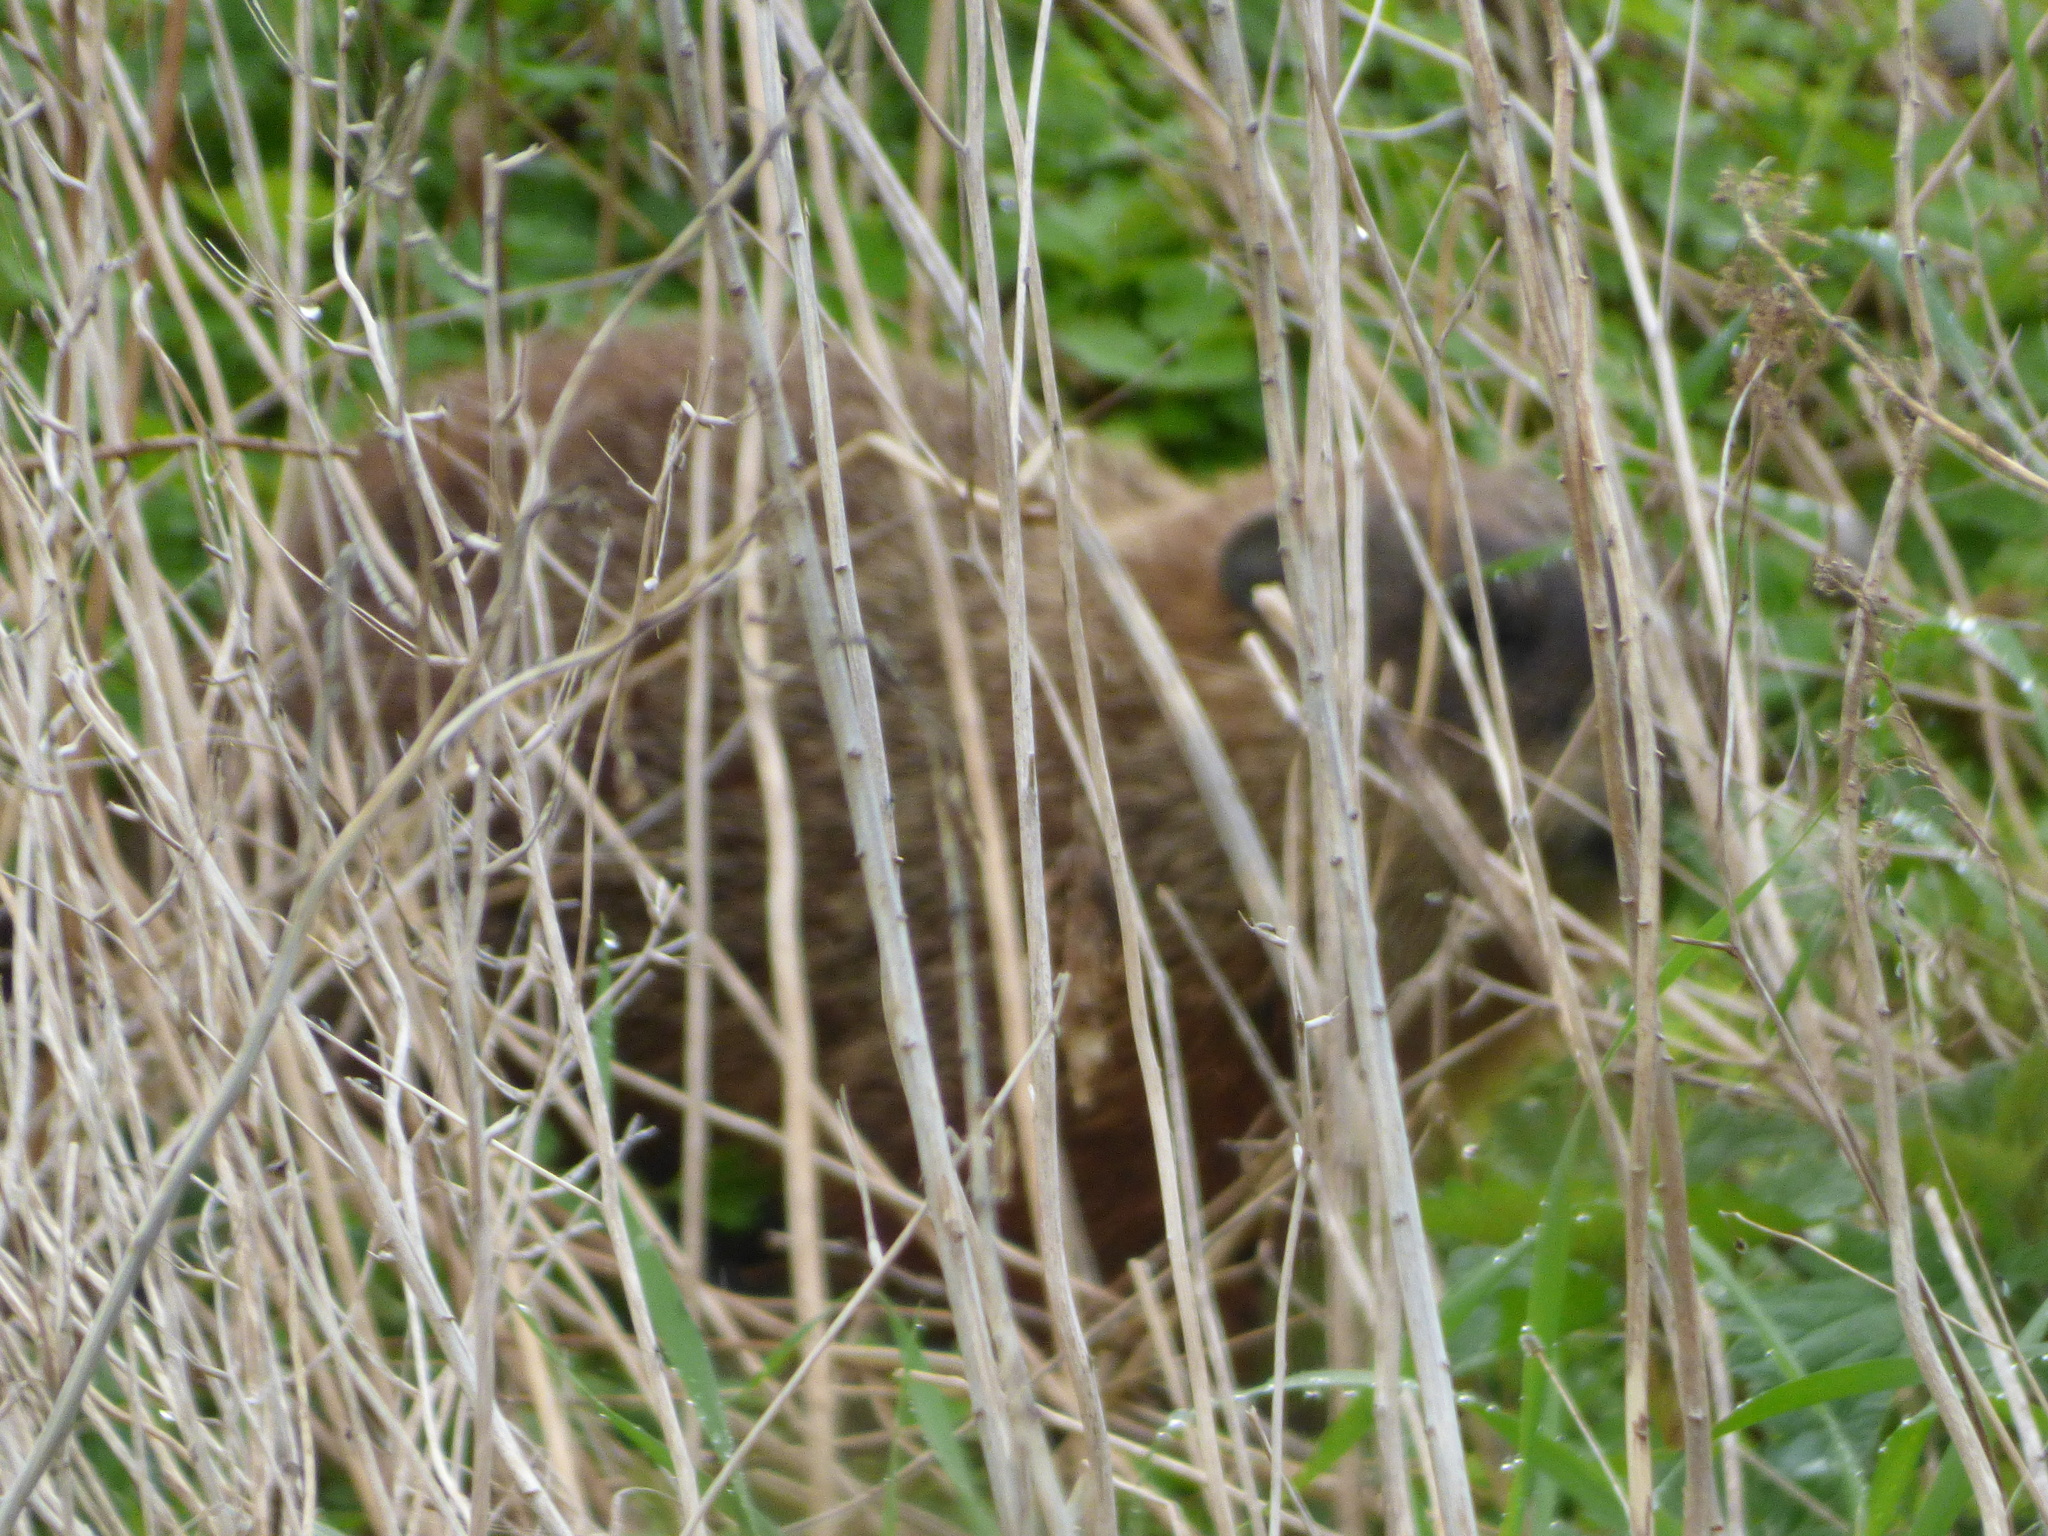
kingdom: Animalia
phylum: Chordata
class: Mammalia
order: Rodentia
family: Sciuridae
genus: Marmota
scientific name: Marmota monax
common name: Groundhog
